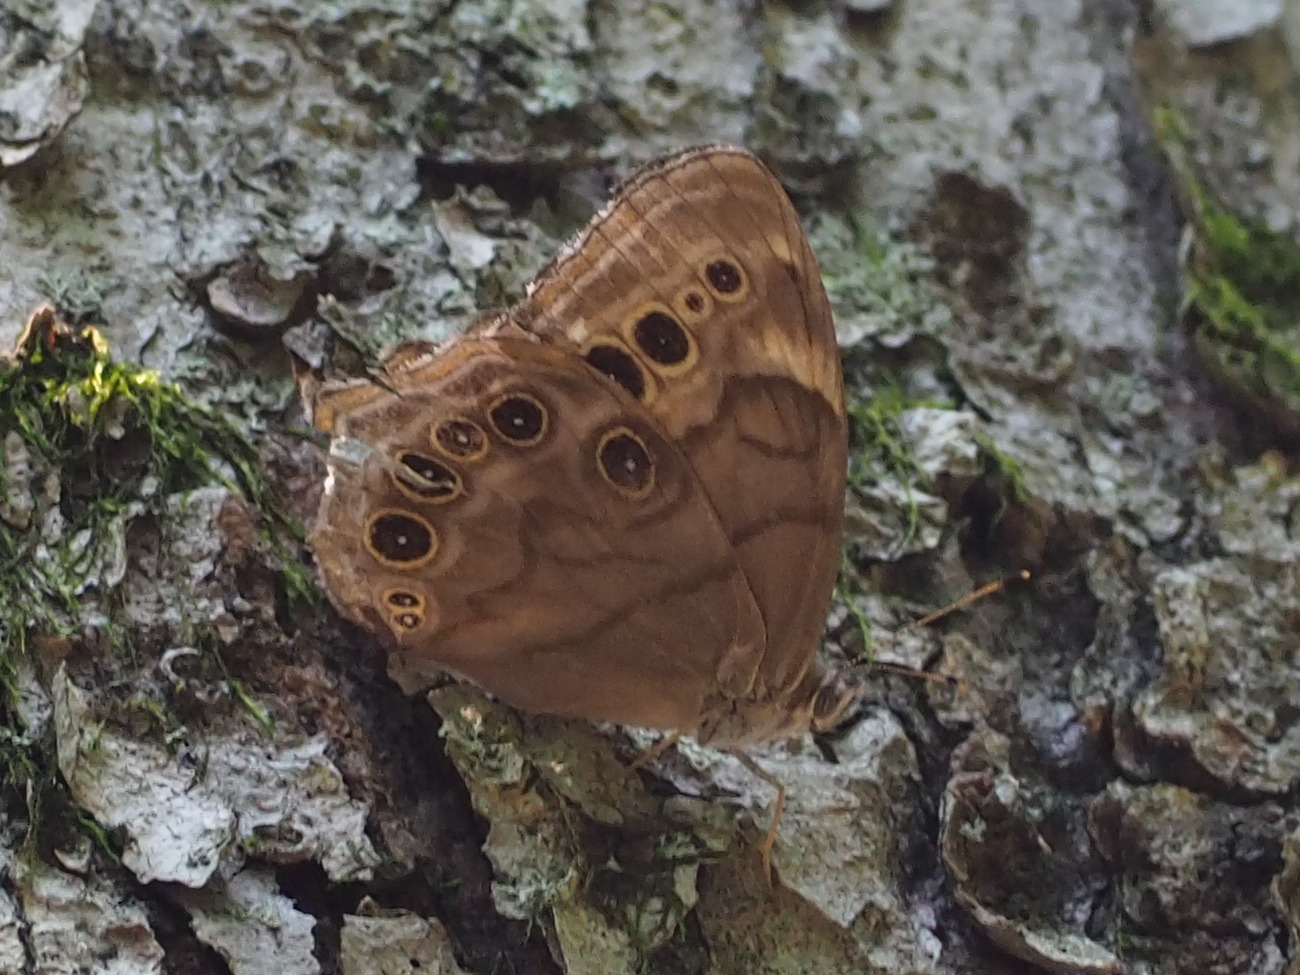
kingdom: Animalia
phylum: Arthropoda
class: Insecta
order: Lepidoptera
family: Nymphalidae
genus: Lethe
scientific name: Lethe anthedon
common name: Northern pearly-eye
